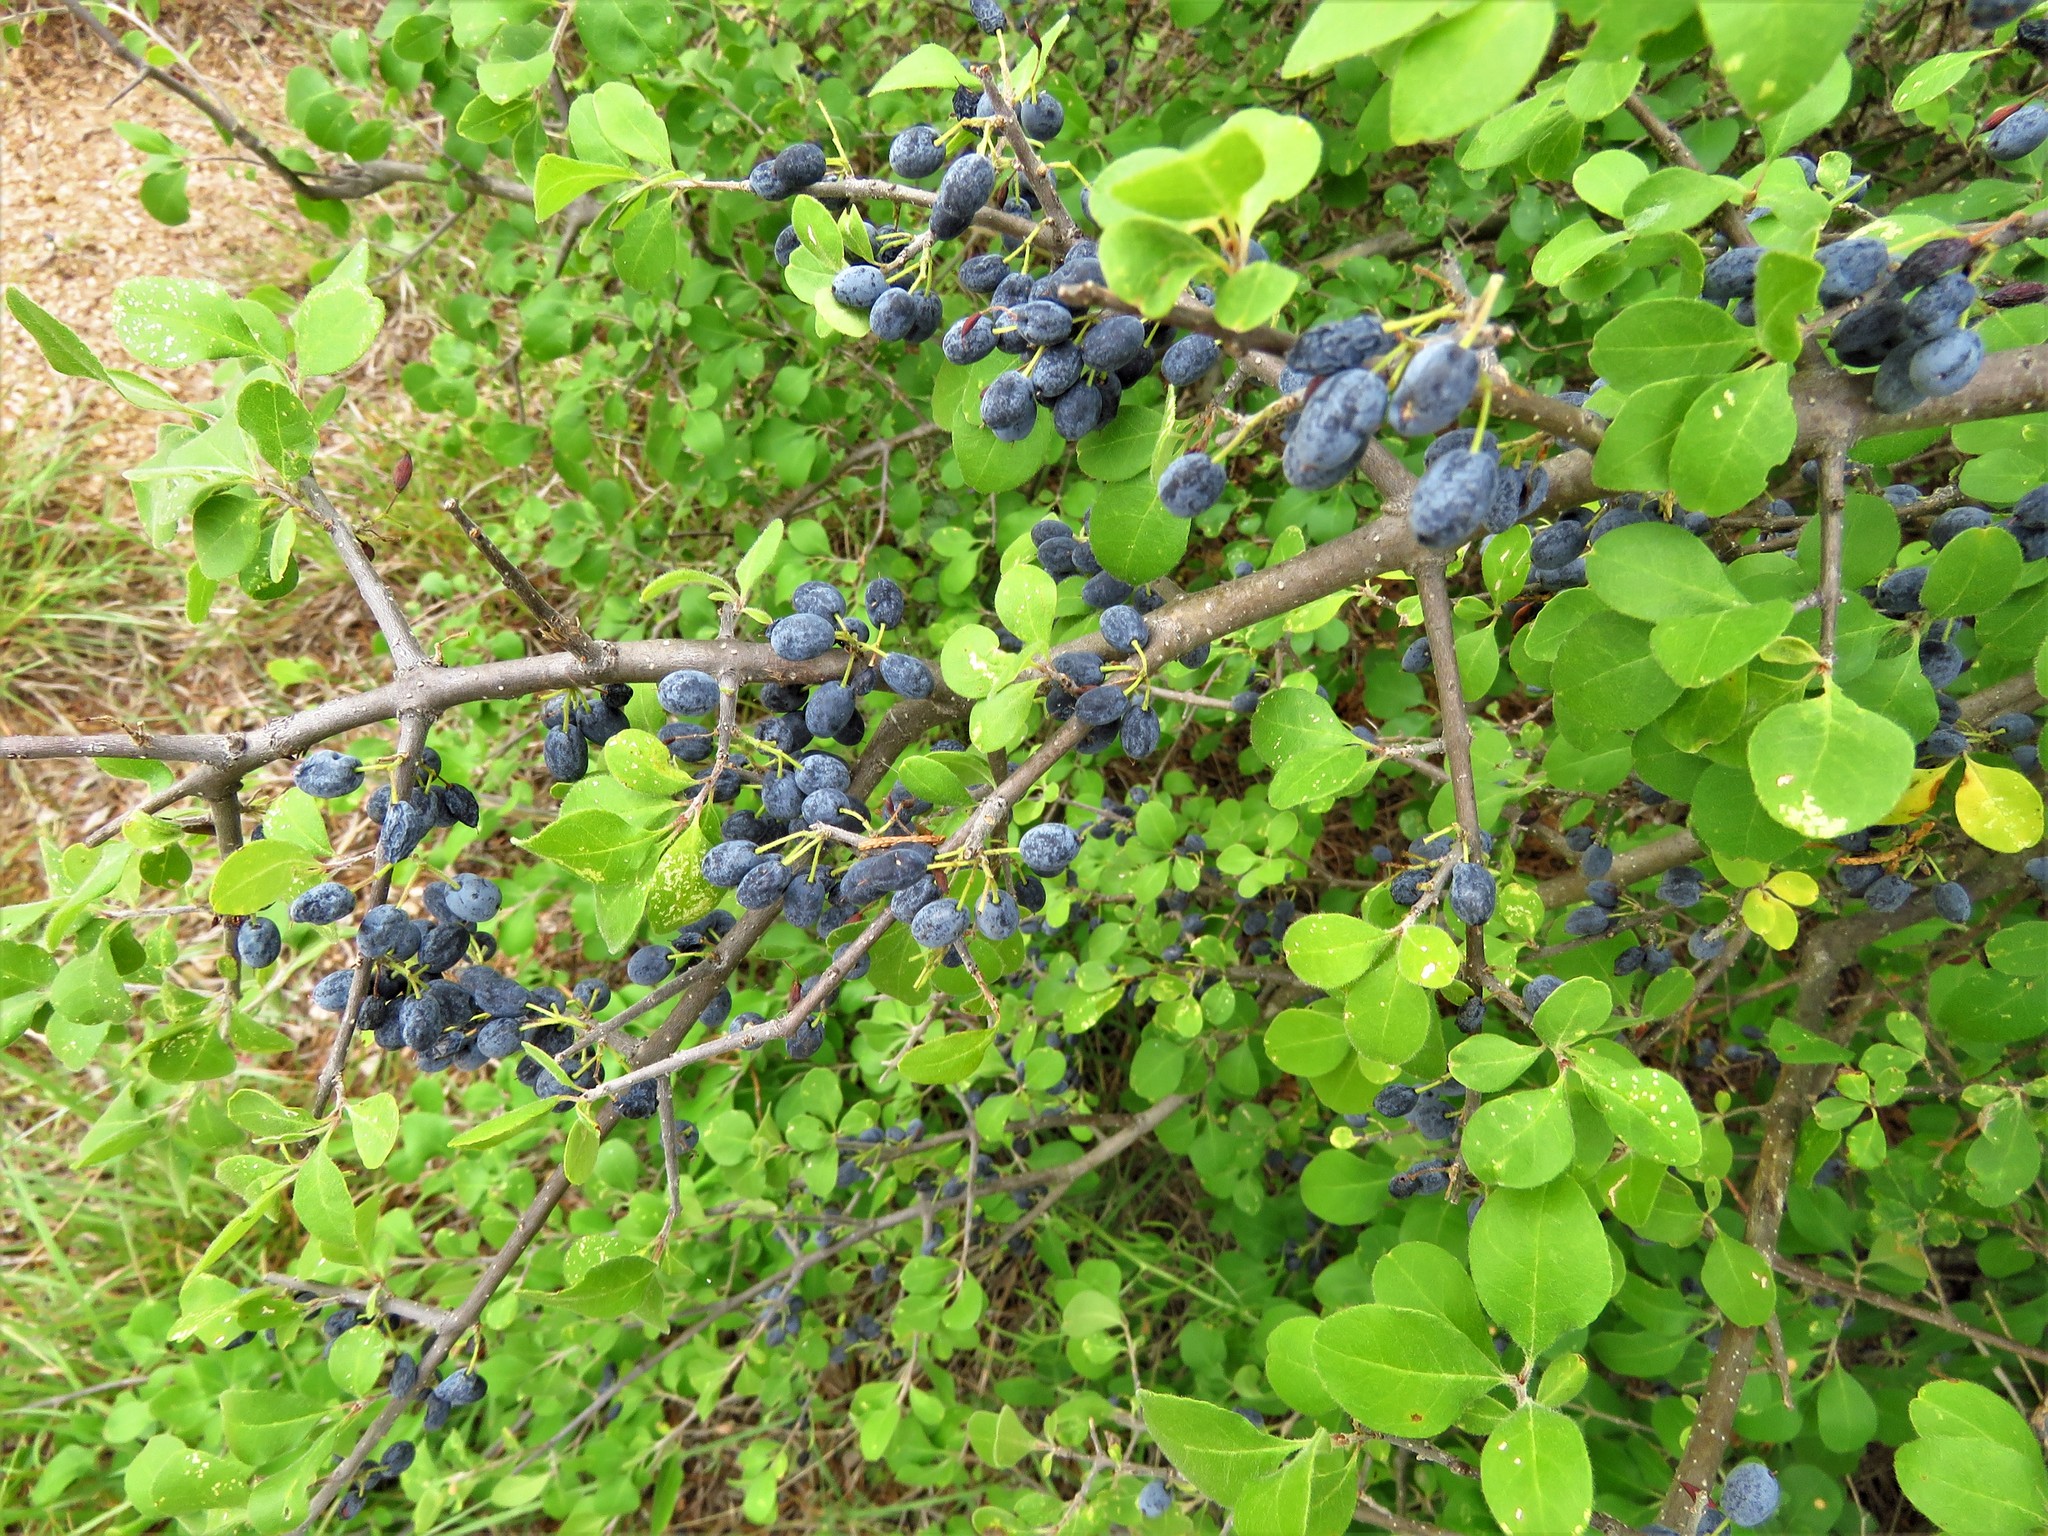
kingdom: Plantae
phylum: Tracheophyta
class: Magnoliopsida
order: Lamiales
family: Oleaceae
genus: Forestiera
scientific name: Forestiera pubescens
